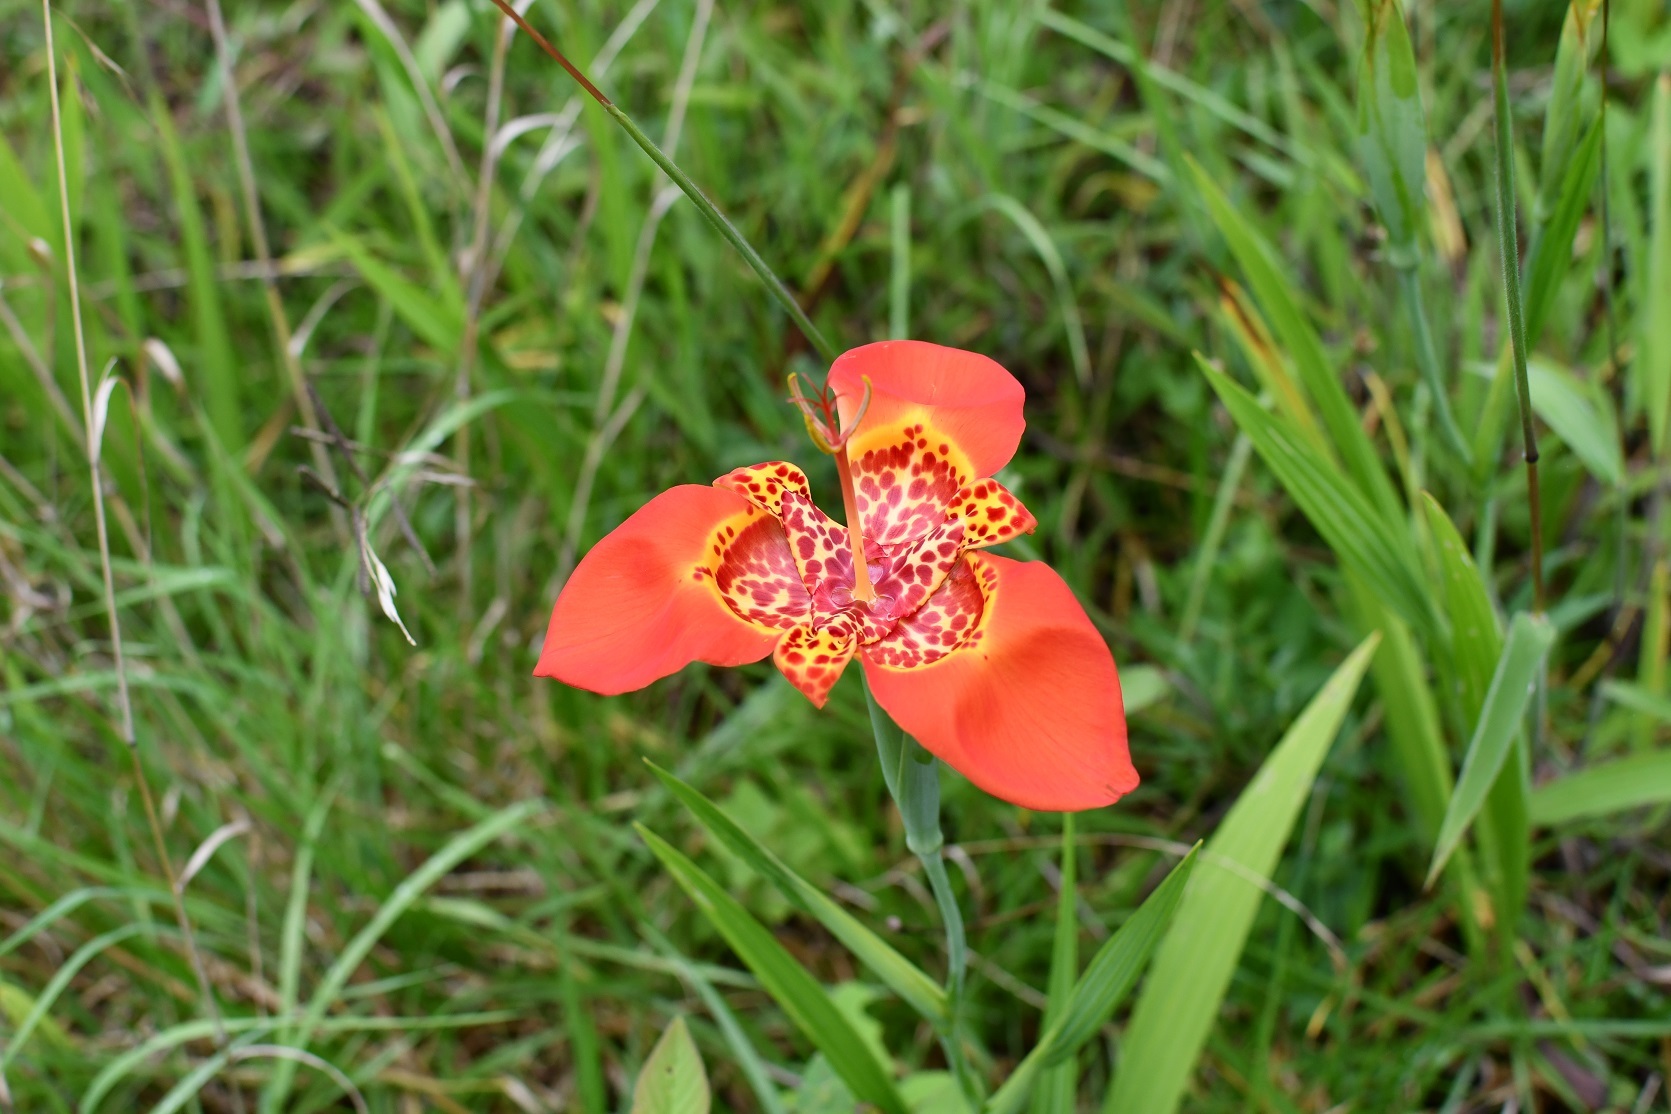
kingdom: Plantae
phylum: Tracheophyta
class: Liliopsida
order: Asparagales
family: Iridaceae
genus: Tigridia
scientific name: Tigridia pavonia
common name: Peacock-flower
